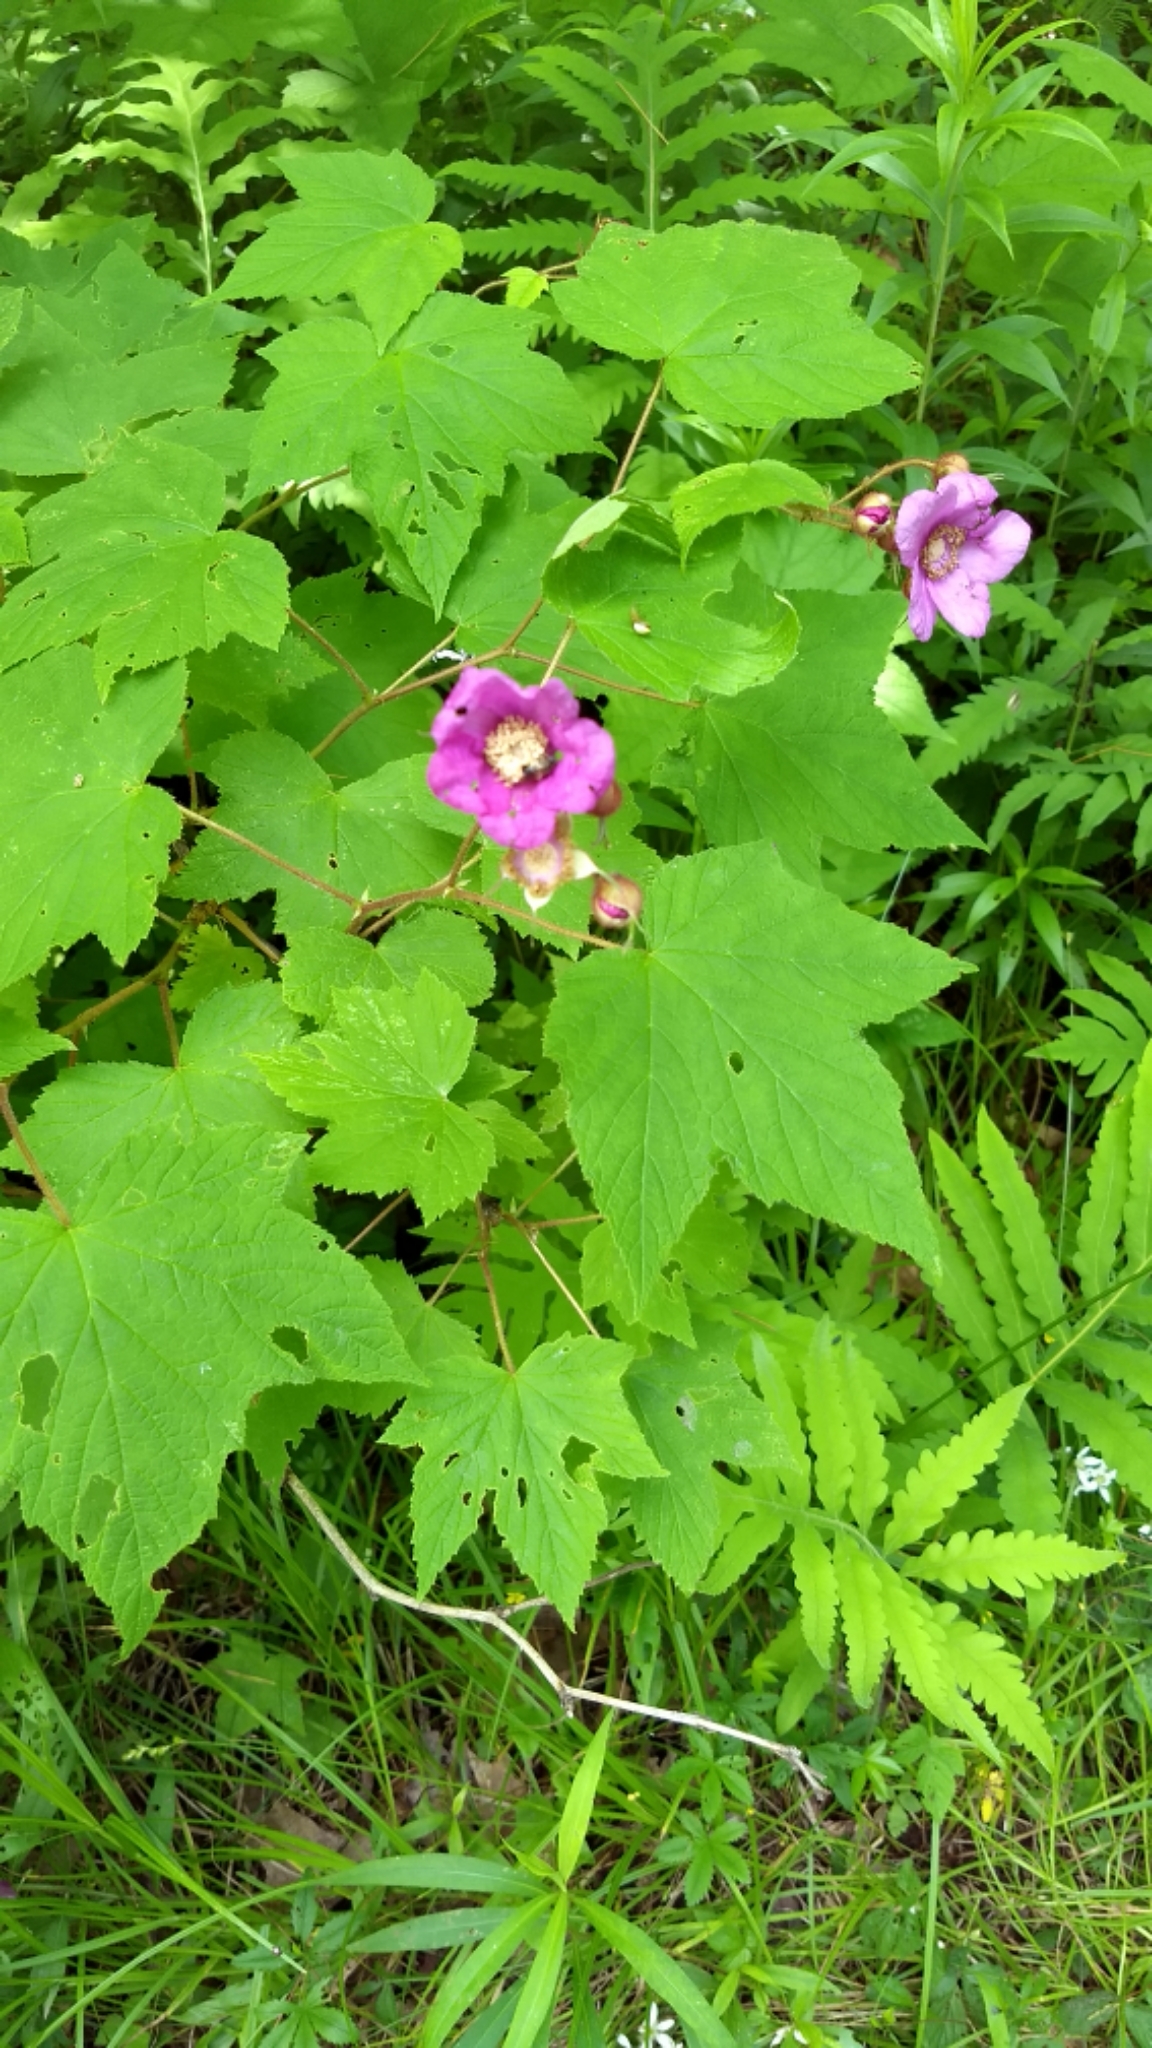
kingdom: Plantae
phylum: Tracheophyta
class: Magnoliopsida
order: Rosales
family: Rosaceae
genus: Rubus
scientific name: Rubus odoratus
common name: Purple-flowered raspberry
